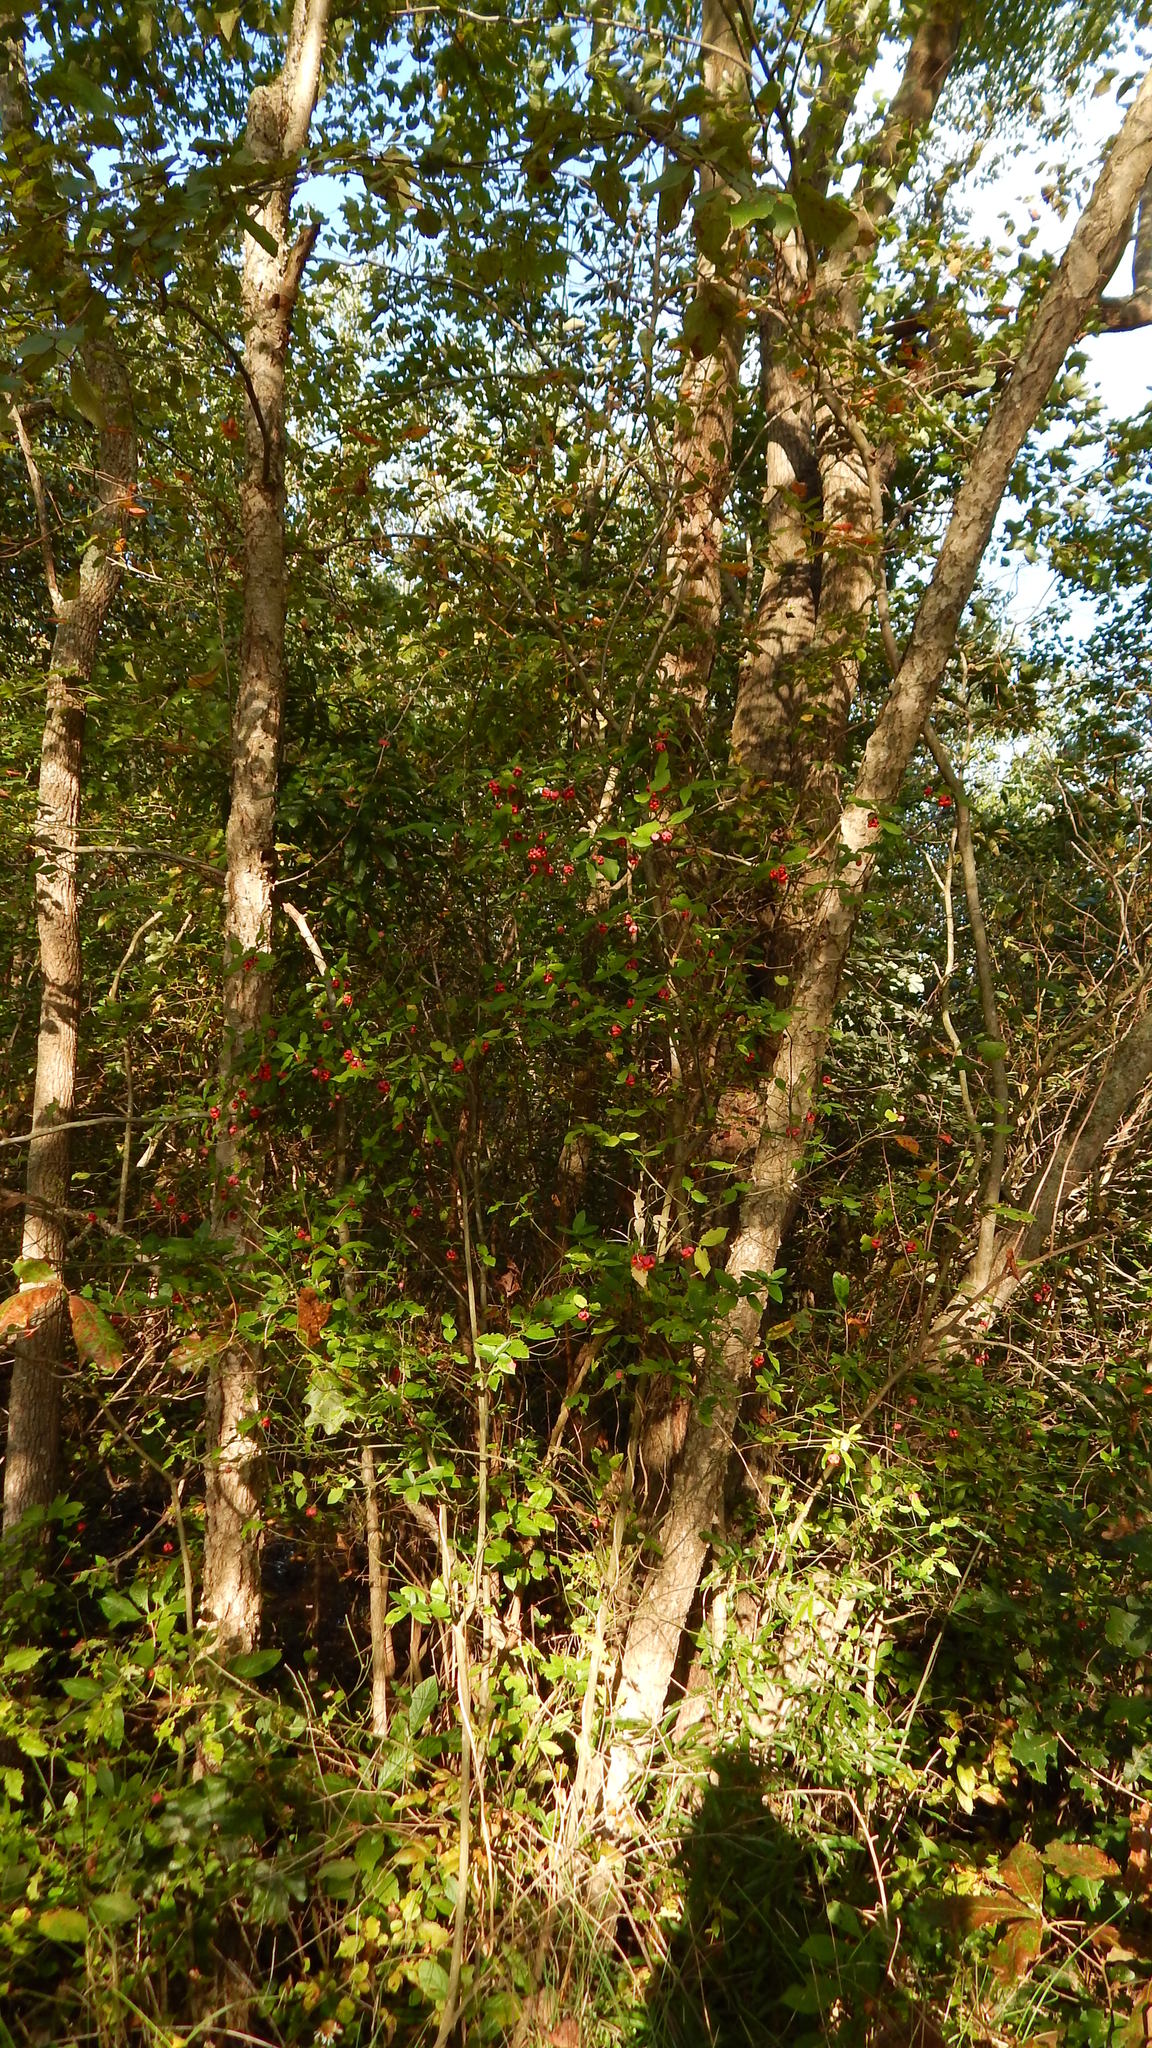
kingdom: Plantae
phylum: Tracheophyta
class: Magnoliopsida
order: Celastrales
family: Celastraceae
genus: Euonymus
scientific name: Euonymus americanus
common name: Bursting-heart
